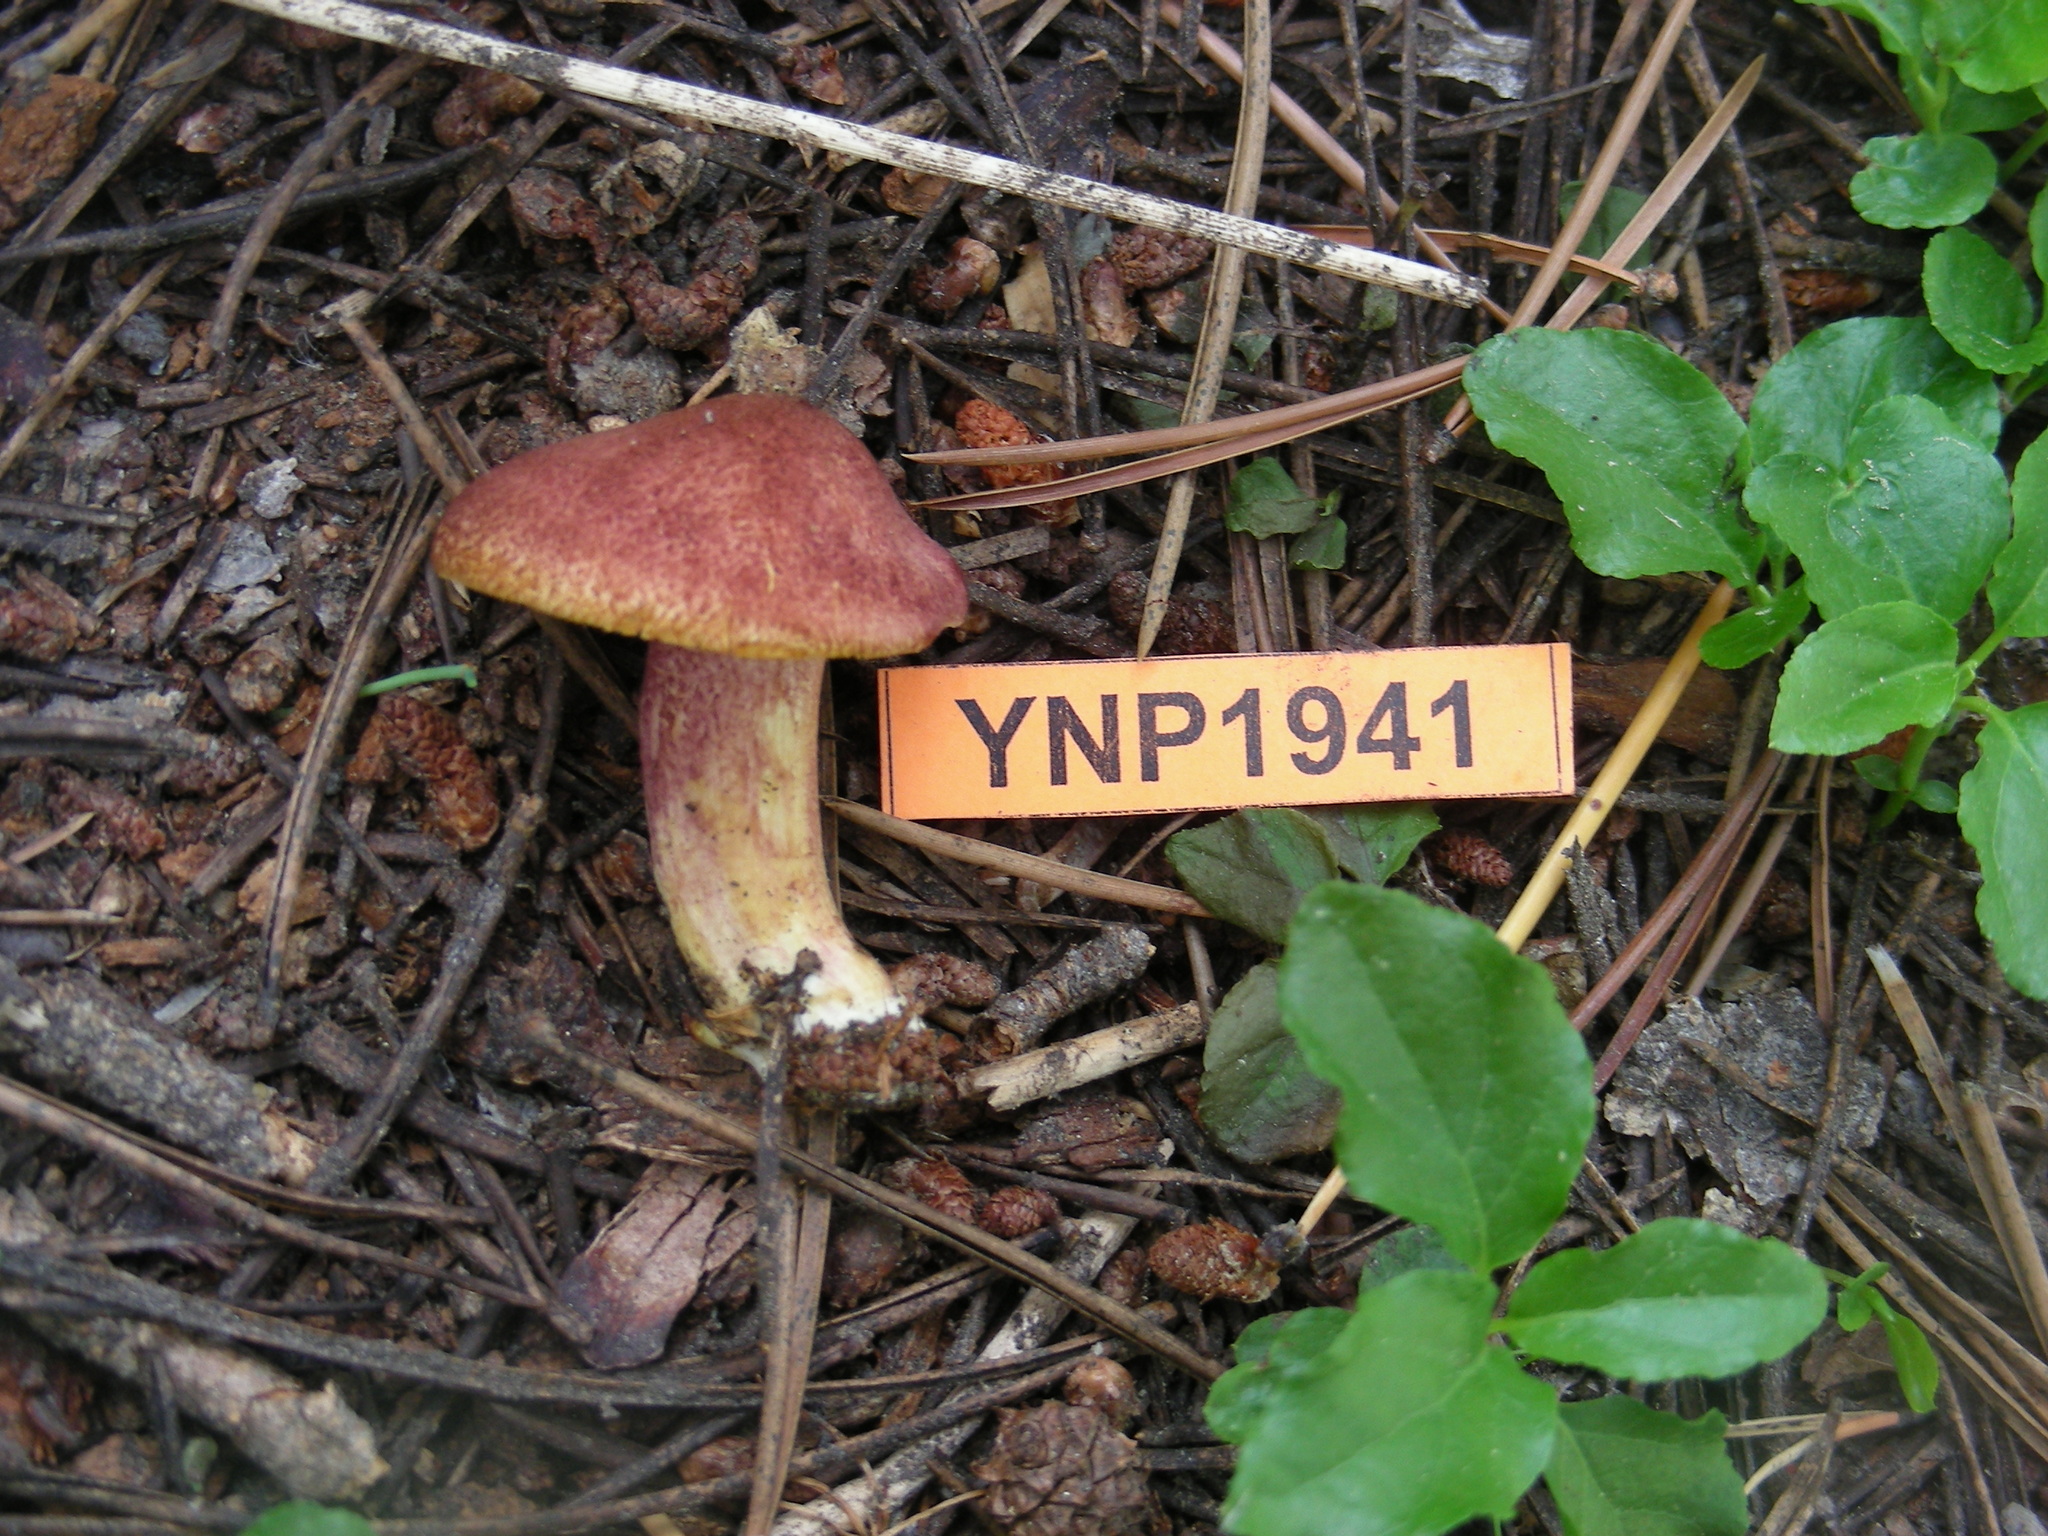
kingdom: Fungi
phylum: Basidiomycota
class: Agaricomycetes
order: Agaricales
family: Tricholomataceae
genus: Tricholomopsis
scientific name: Tricholomopsis rutilans
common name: Plums and custard
